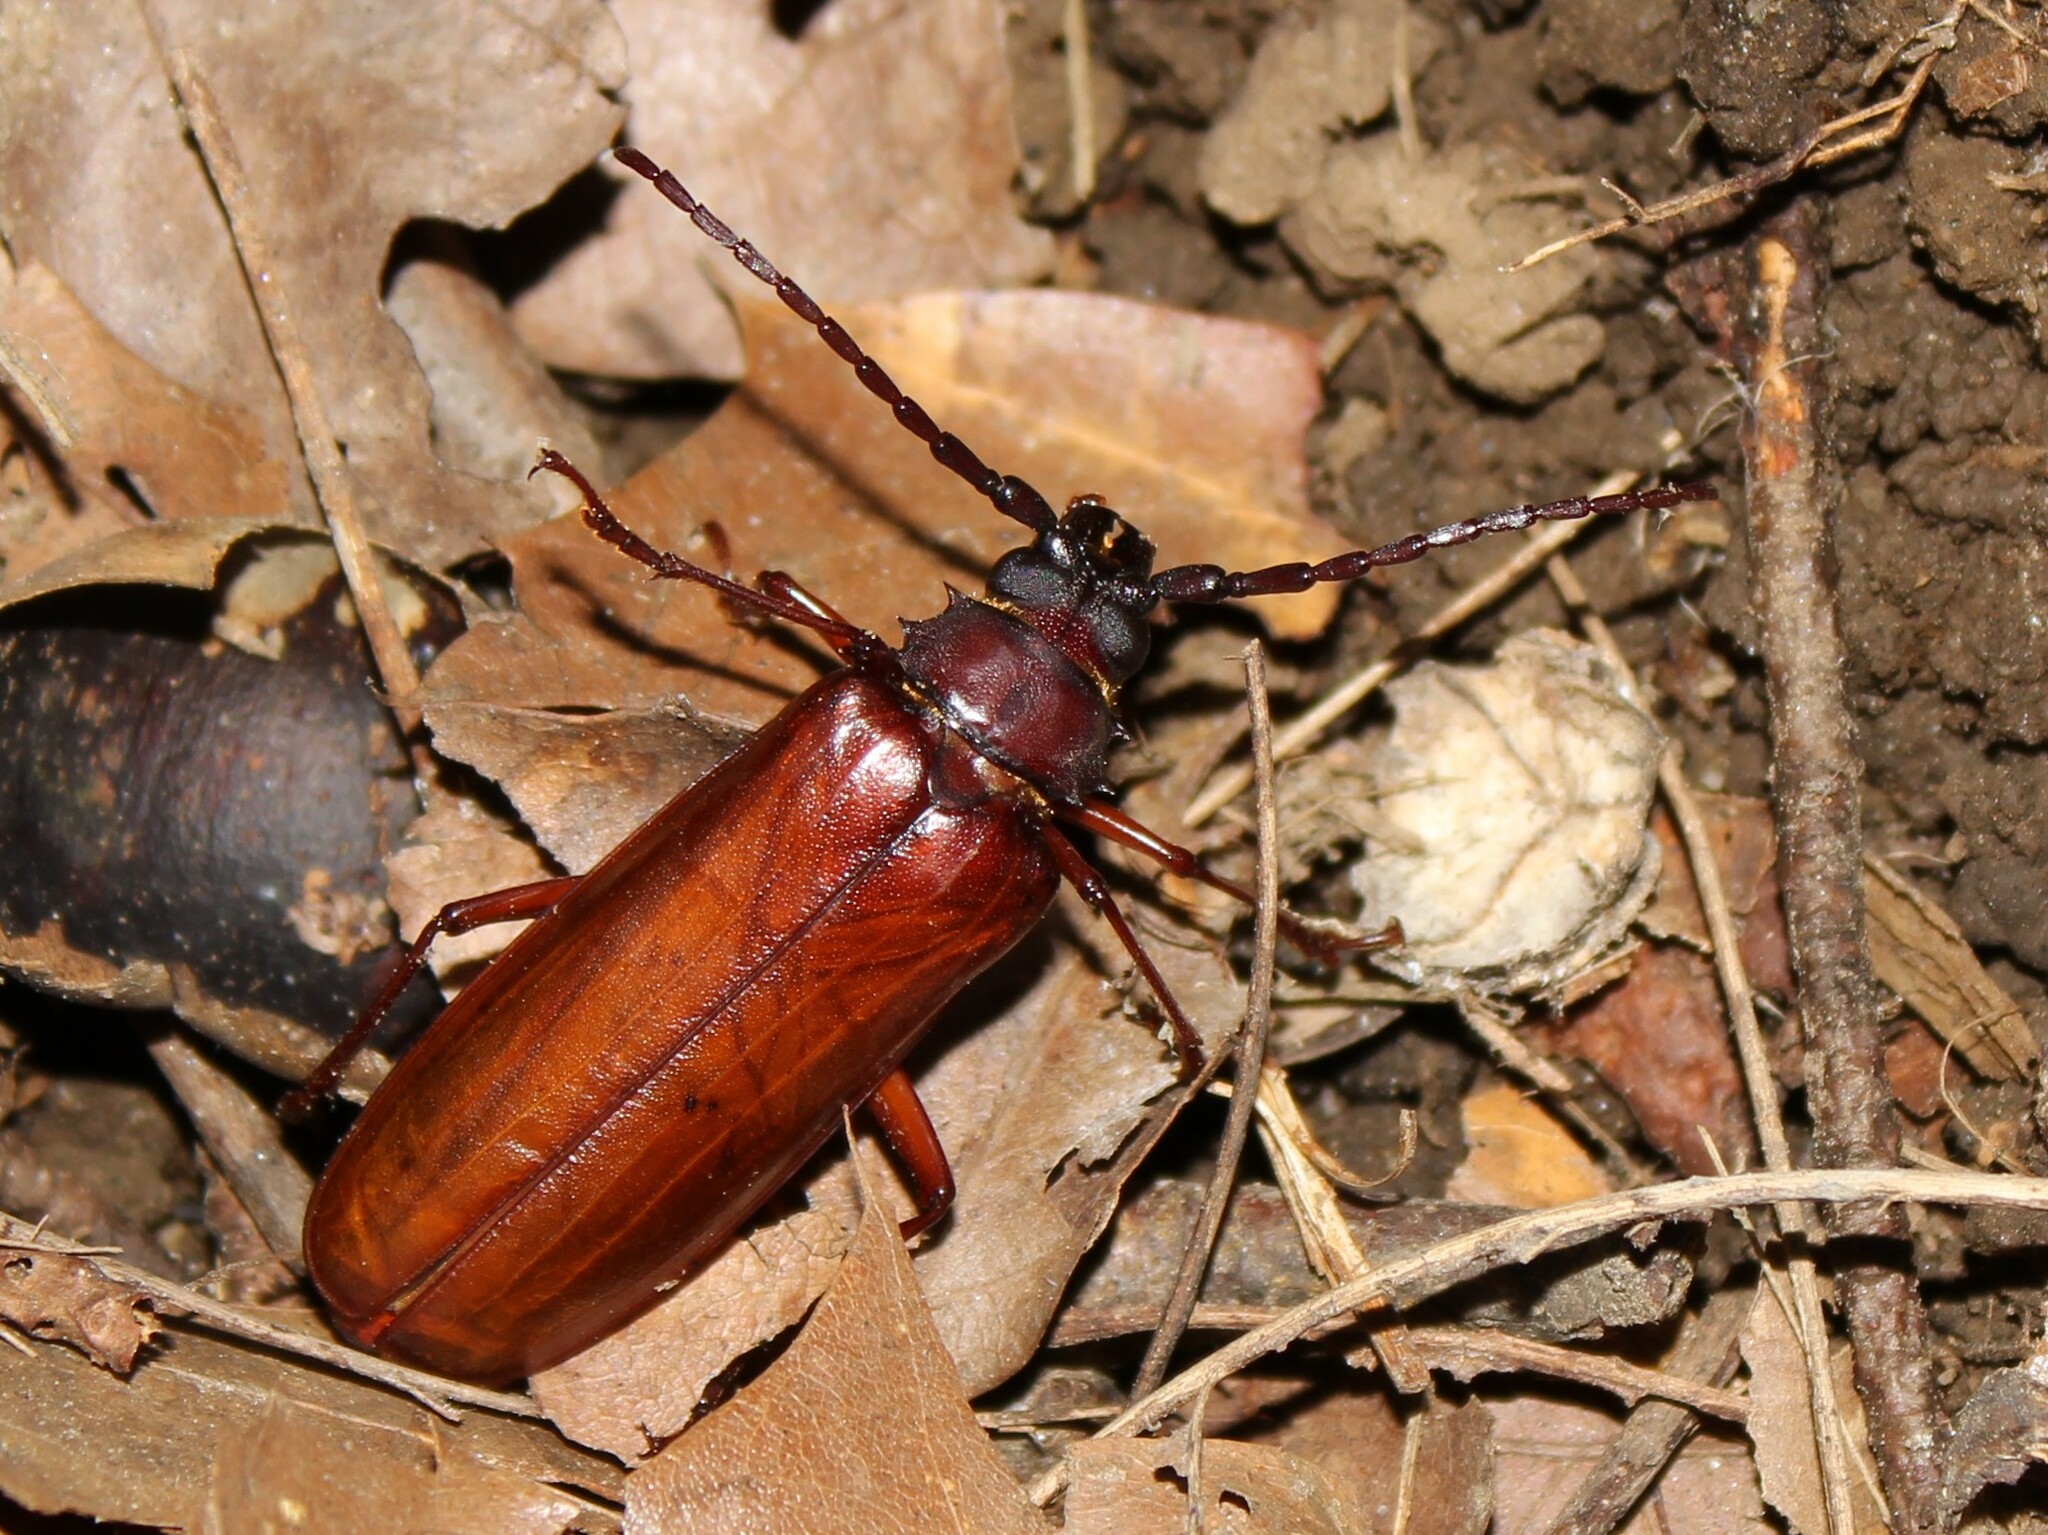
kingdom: Animalia
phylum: Arthropoda
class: Insecta
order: Coleoptera
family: Cerambycidae
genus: Orthosoma
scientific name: Orthosoma brunneum
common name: Brown prionid beetle
